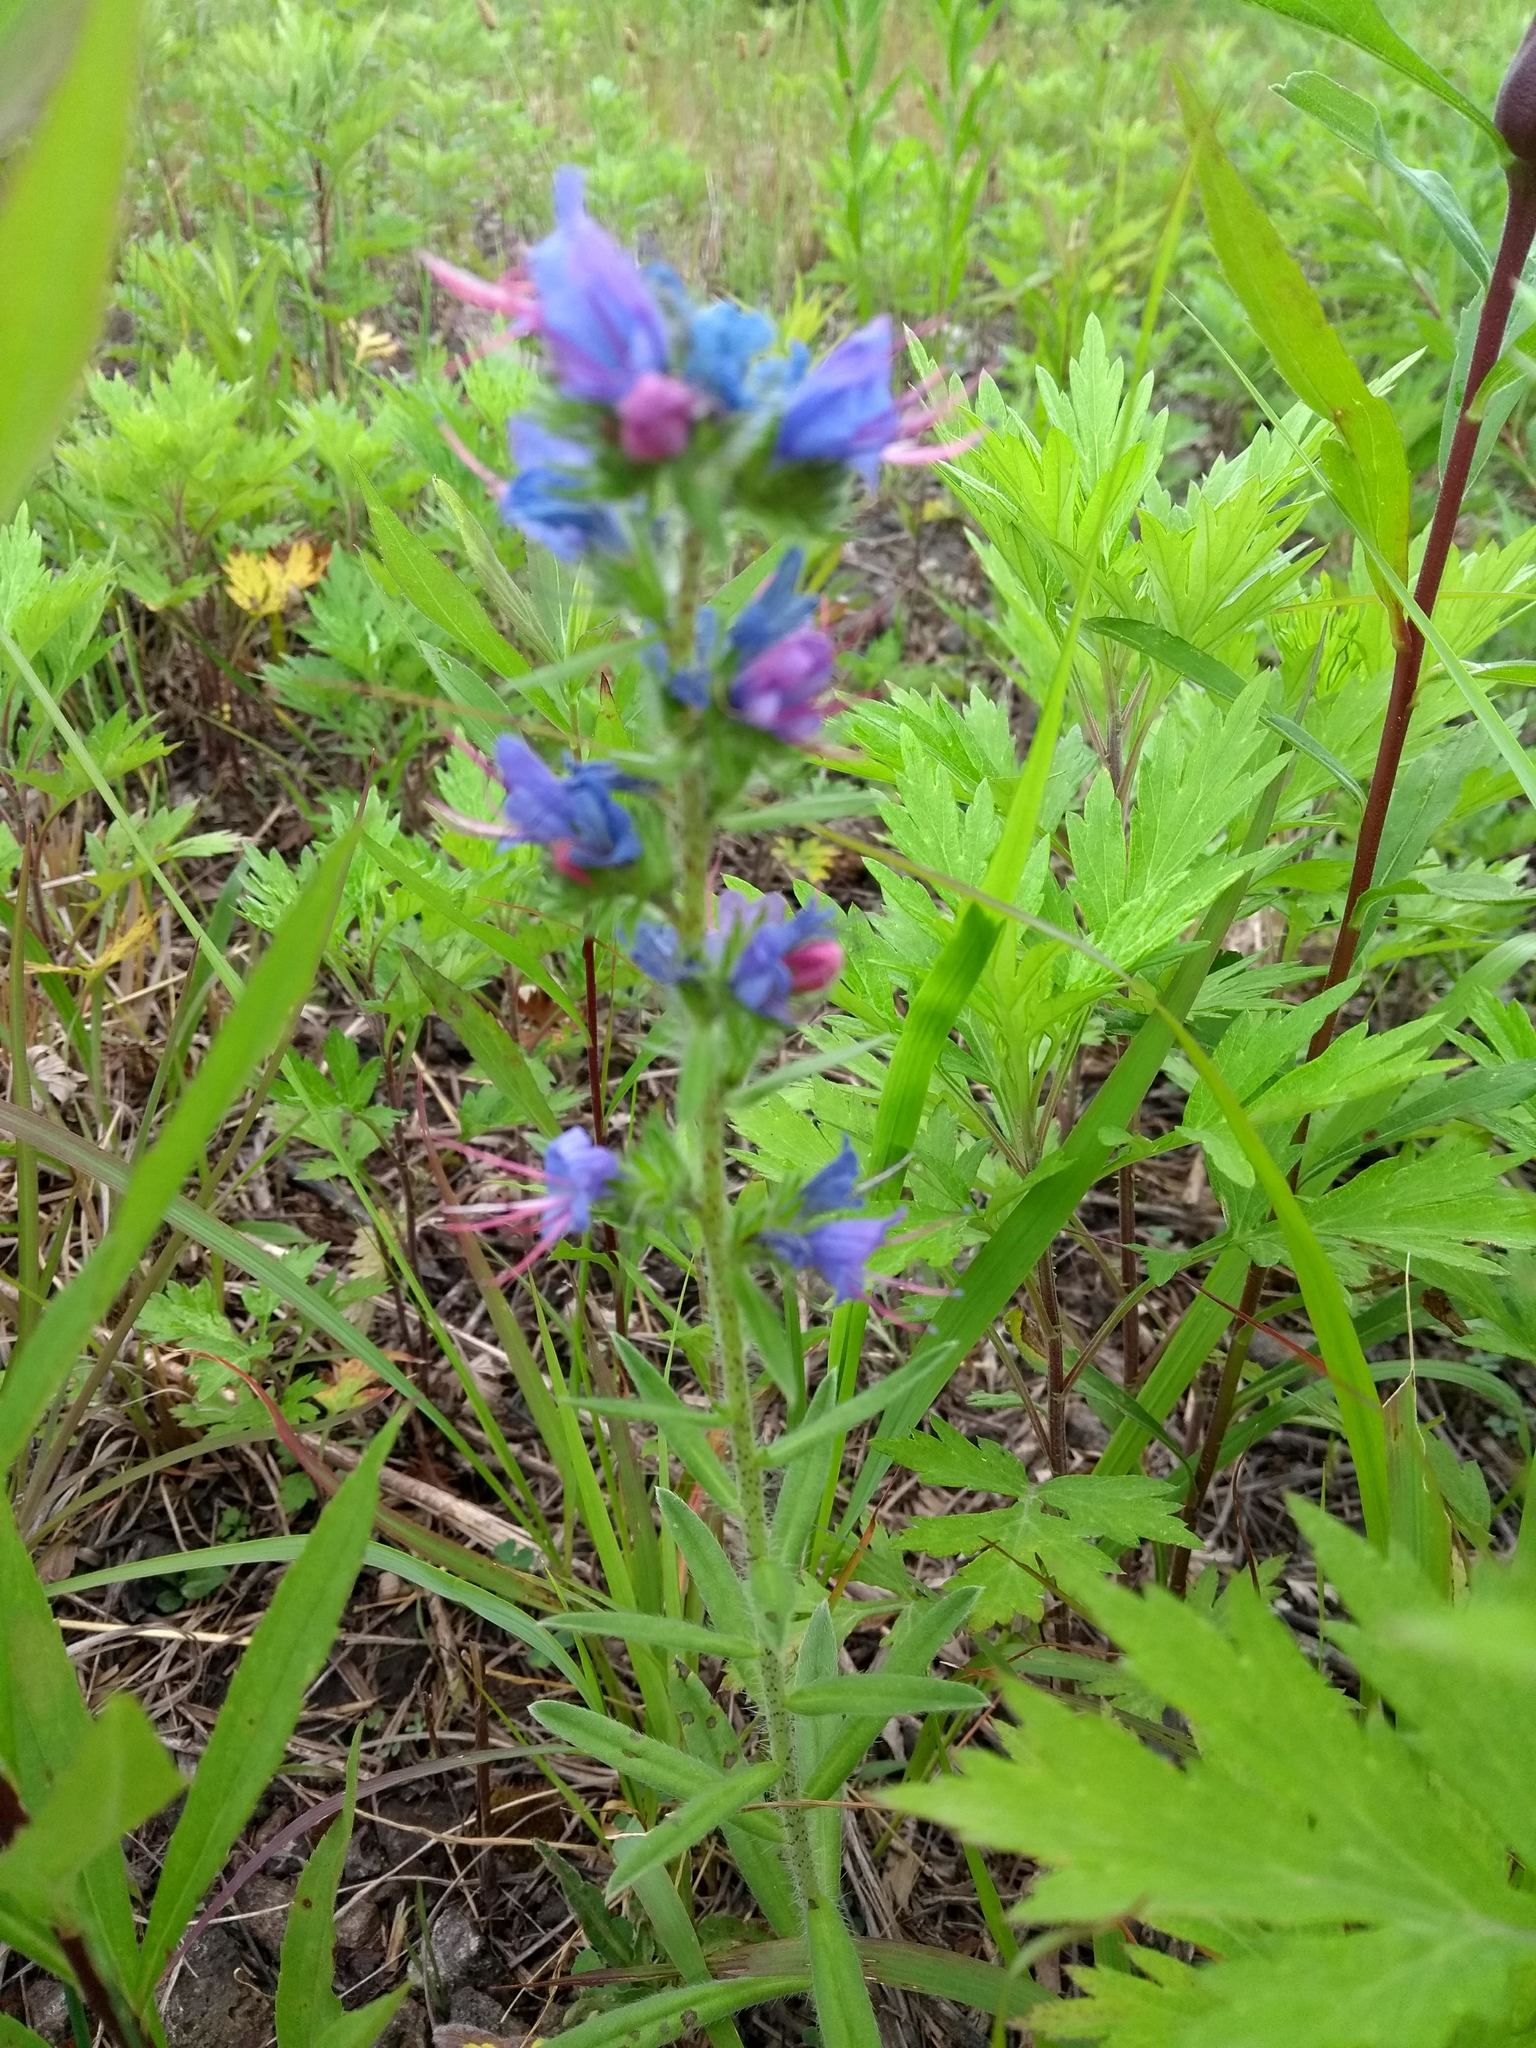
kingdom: Plantae
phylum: Tracheophyta
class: Magnoliopsida
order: Boraginales
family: Boraginaceae
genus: Echium
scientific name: Echium vulgare
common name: Common viper's bugloss
